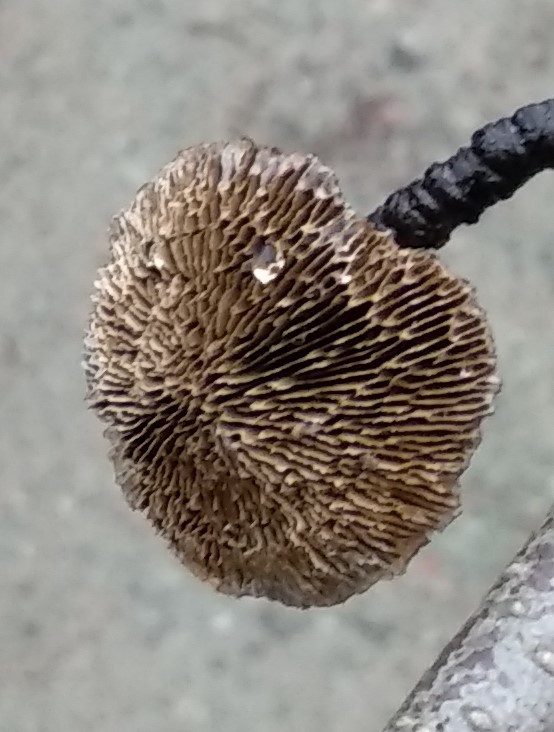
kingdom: Fungi
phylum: Basidiomycota
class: Agaricomycetes
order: Polyporales
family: Polyporaceae
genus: Daedaleopsis
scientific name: Daedaleopsis confragosa
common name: Blushing bracket
